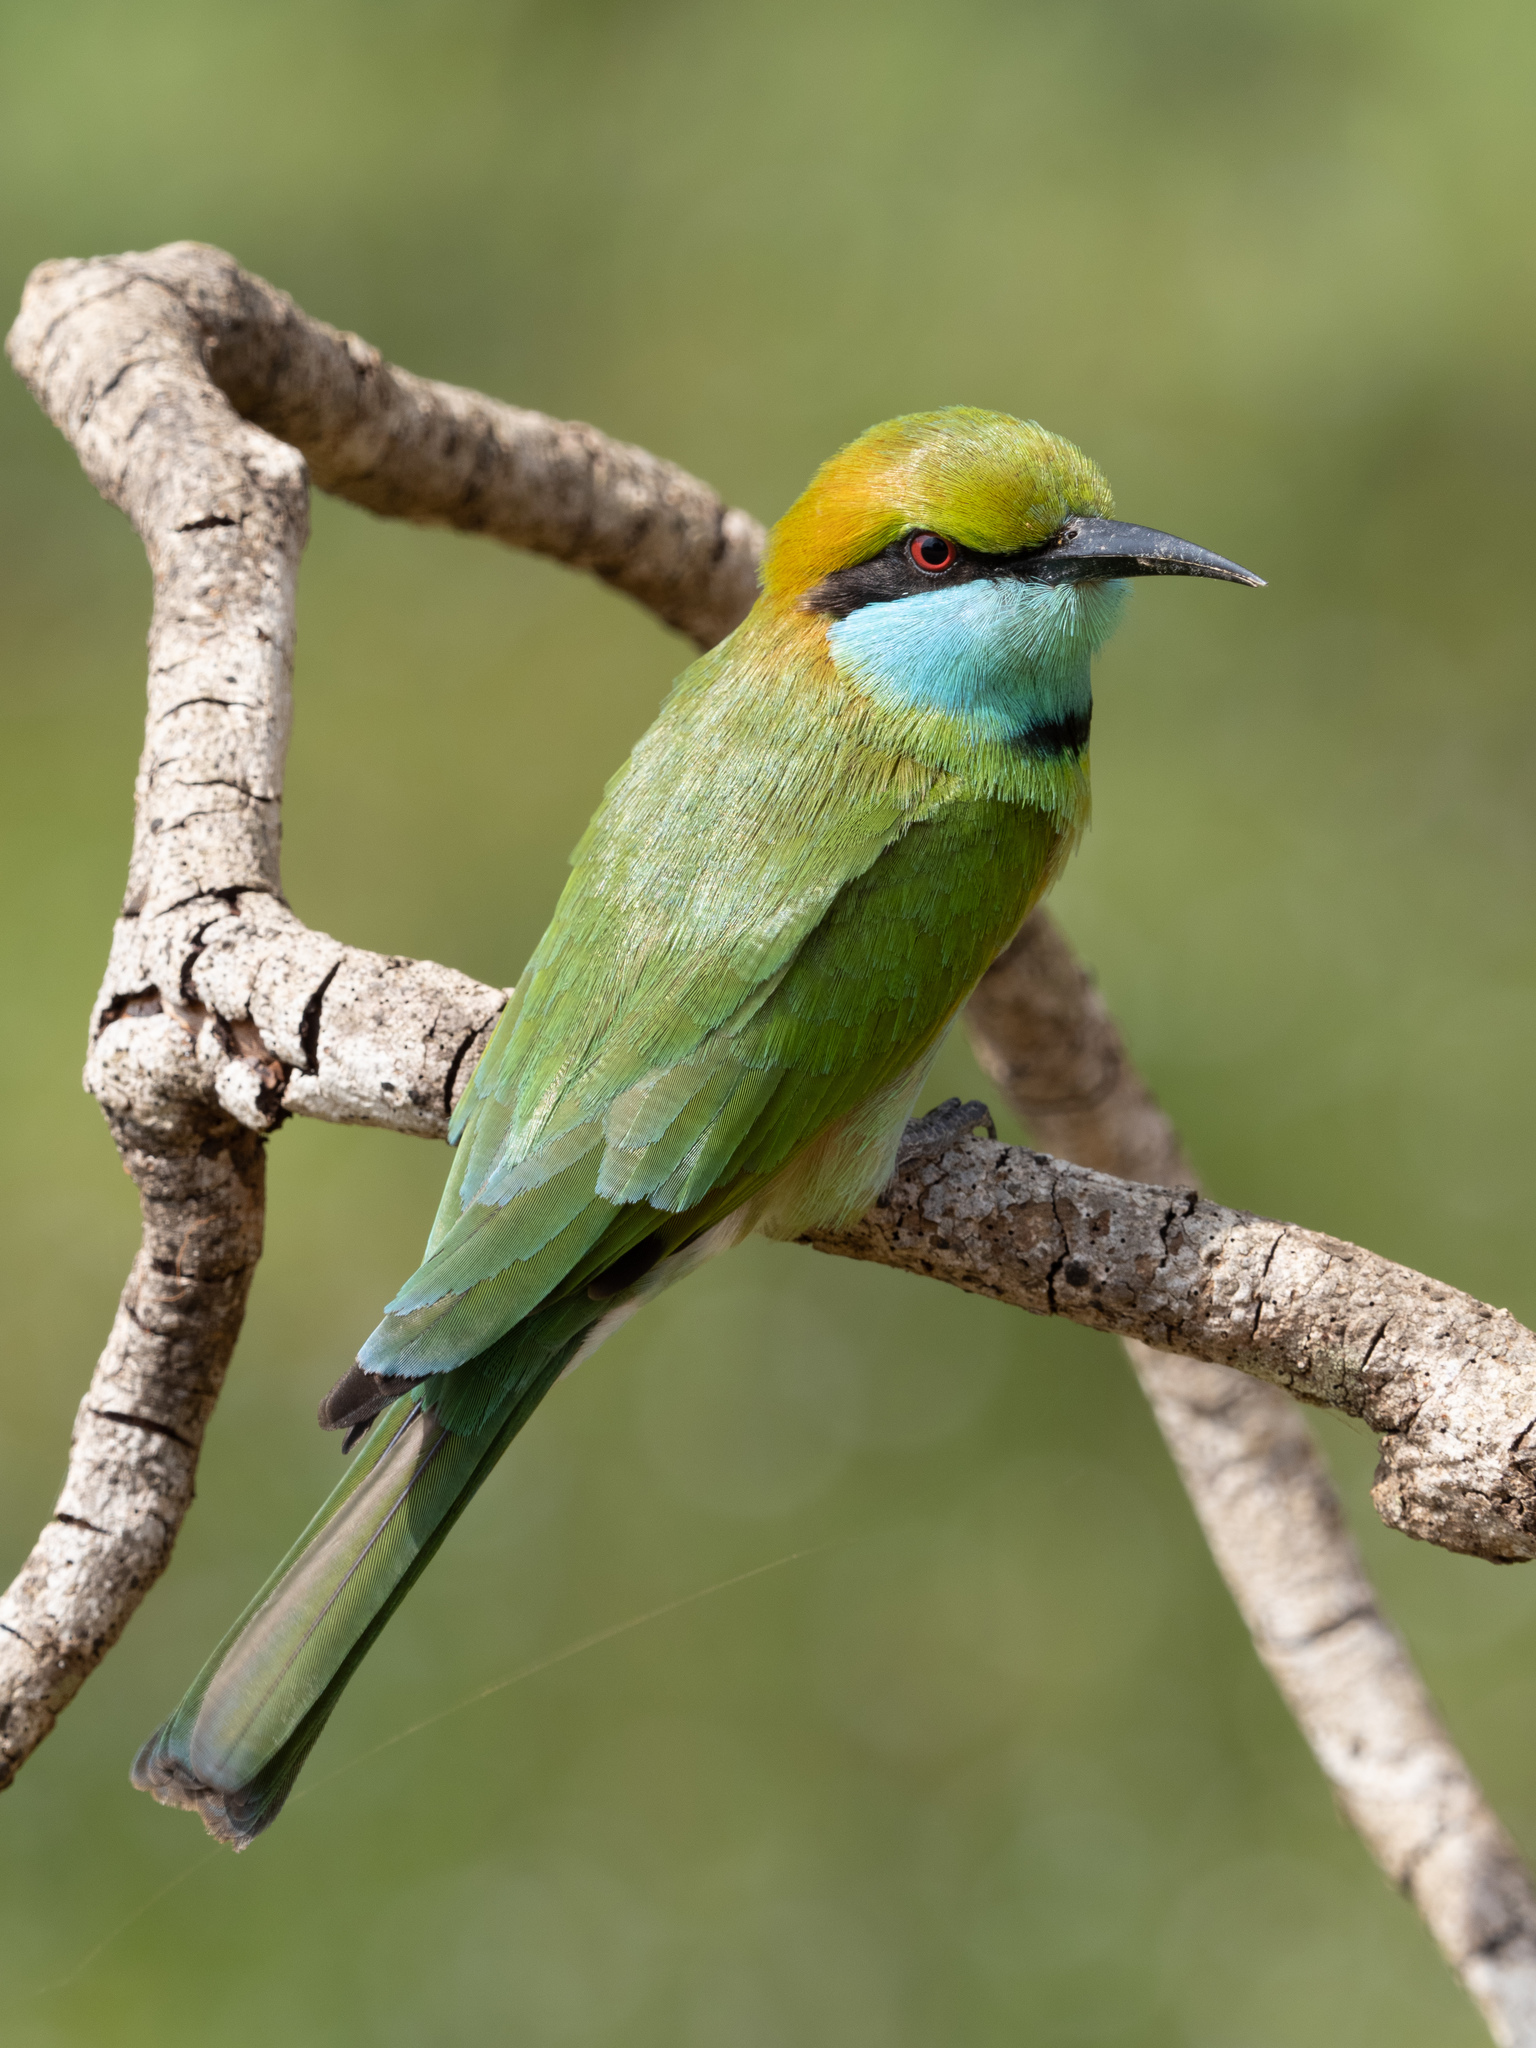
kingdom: Animalia
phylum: Chordata
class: Aves
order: Coraciiformes
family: Meropidae
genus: Merops
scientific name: Merops orientalis
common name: Green bee-eater
